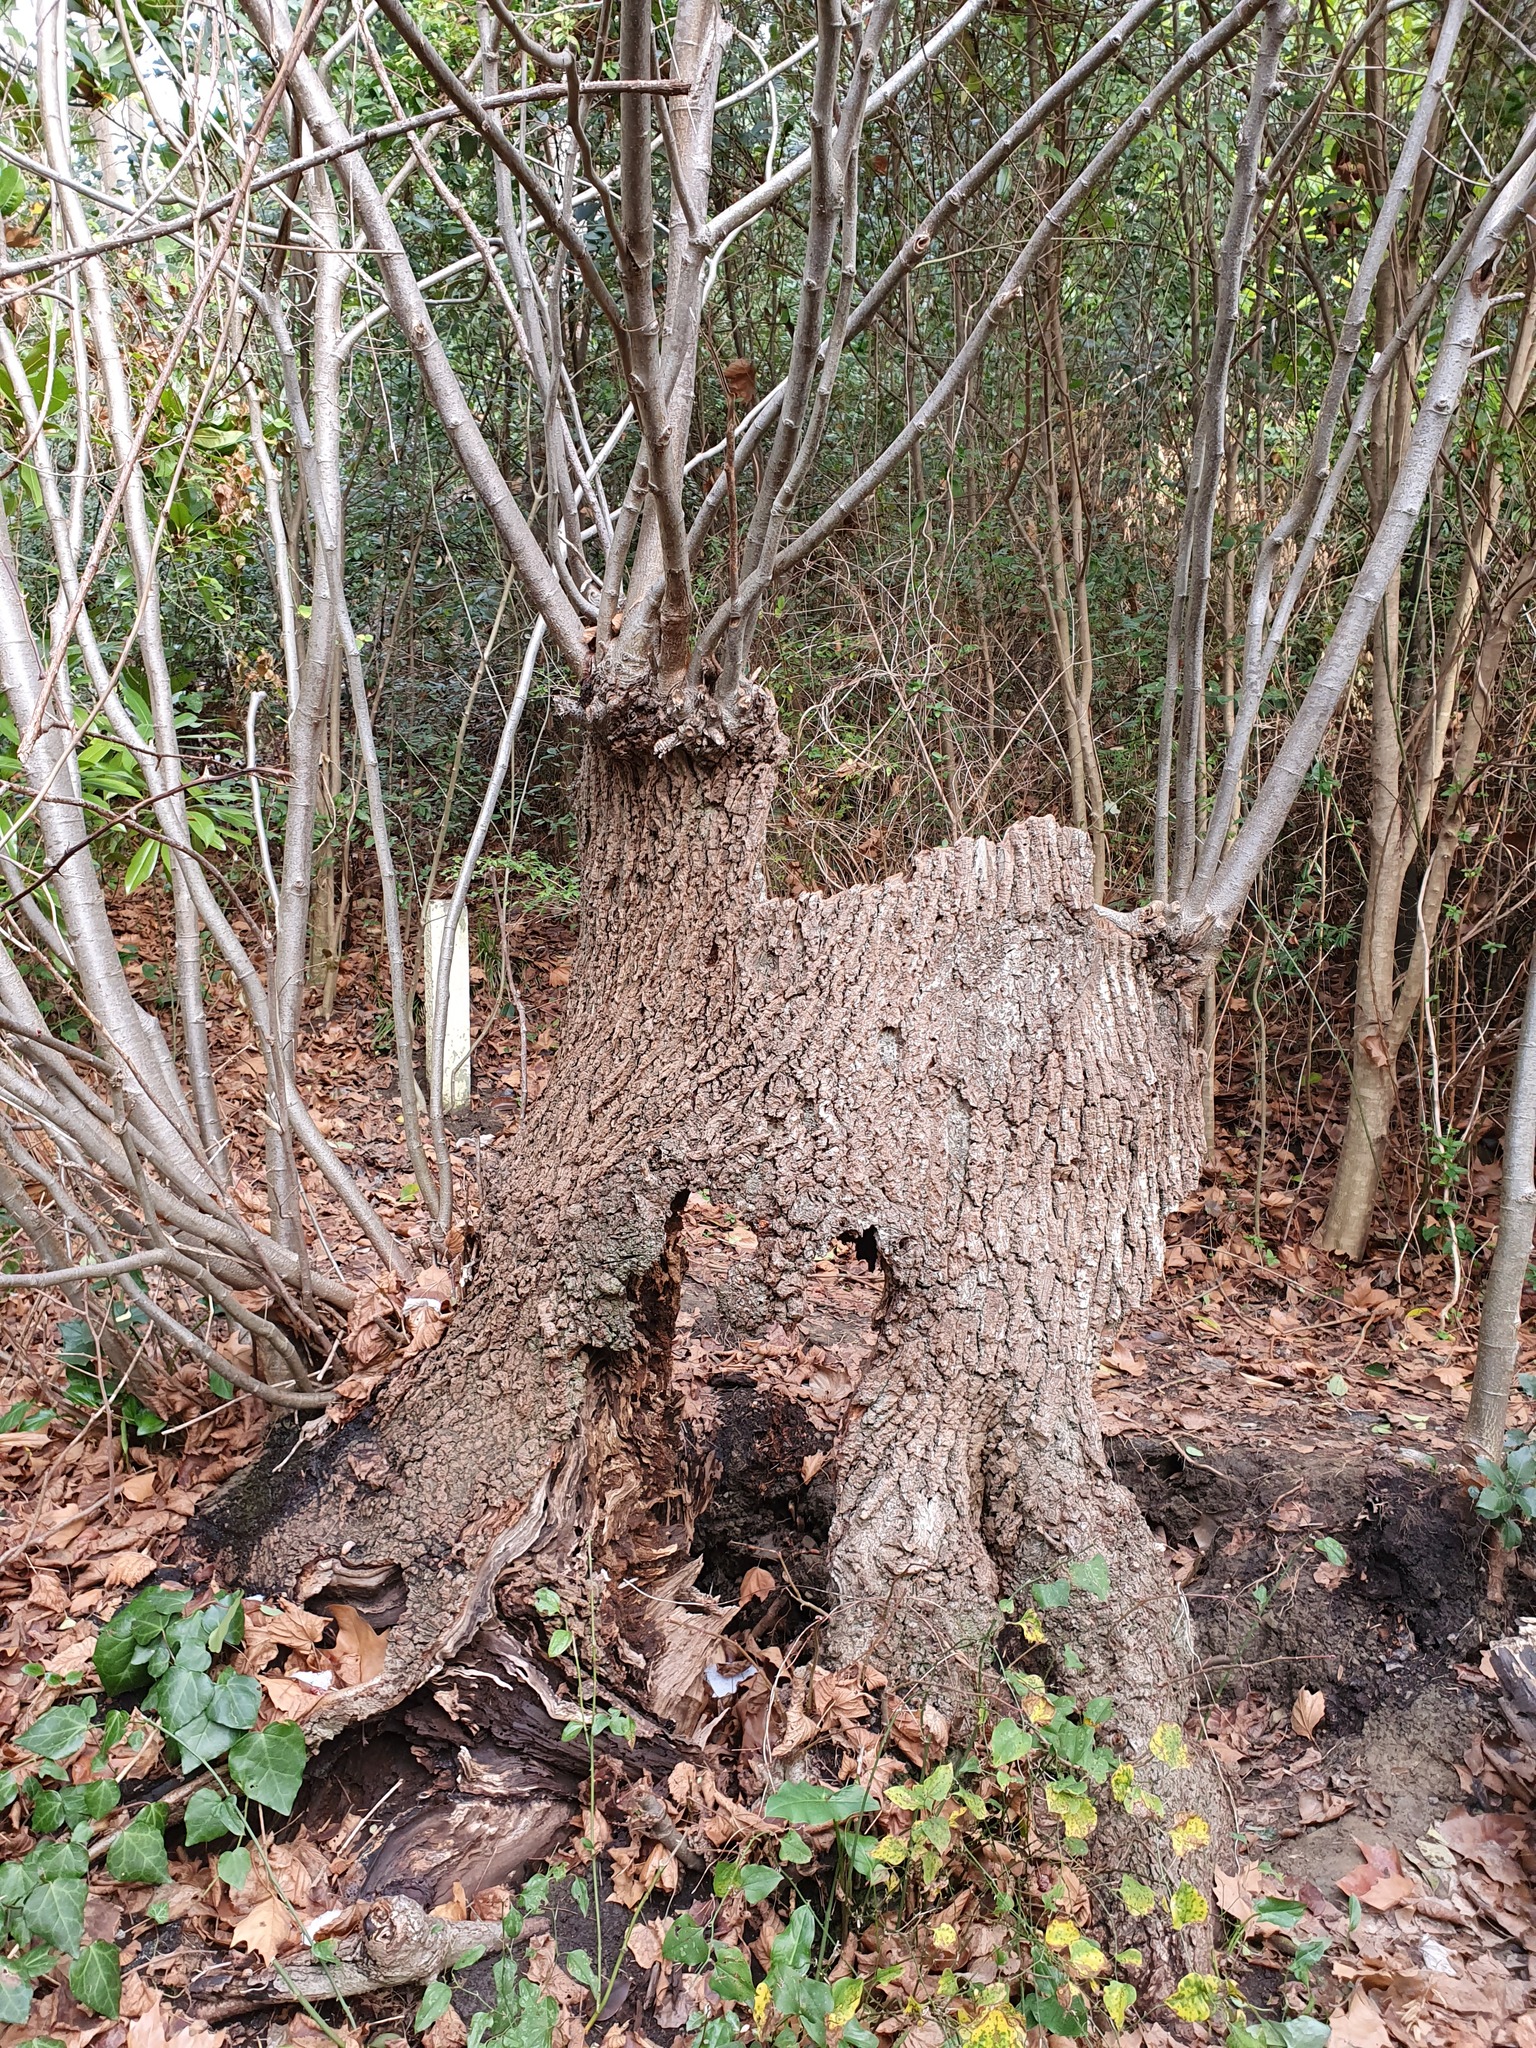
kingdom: Plantae
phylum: Tracheophyta
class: Magnoliopsida
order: Rosales
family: Elaeagnaceae
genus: Elaeagnus
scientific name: Elaeagnus pungens
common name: Spiny oleaster
